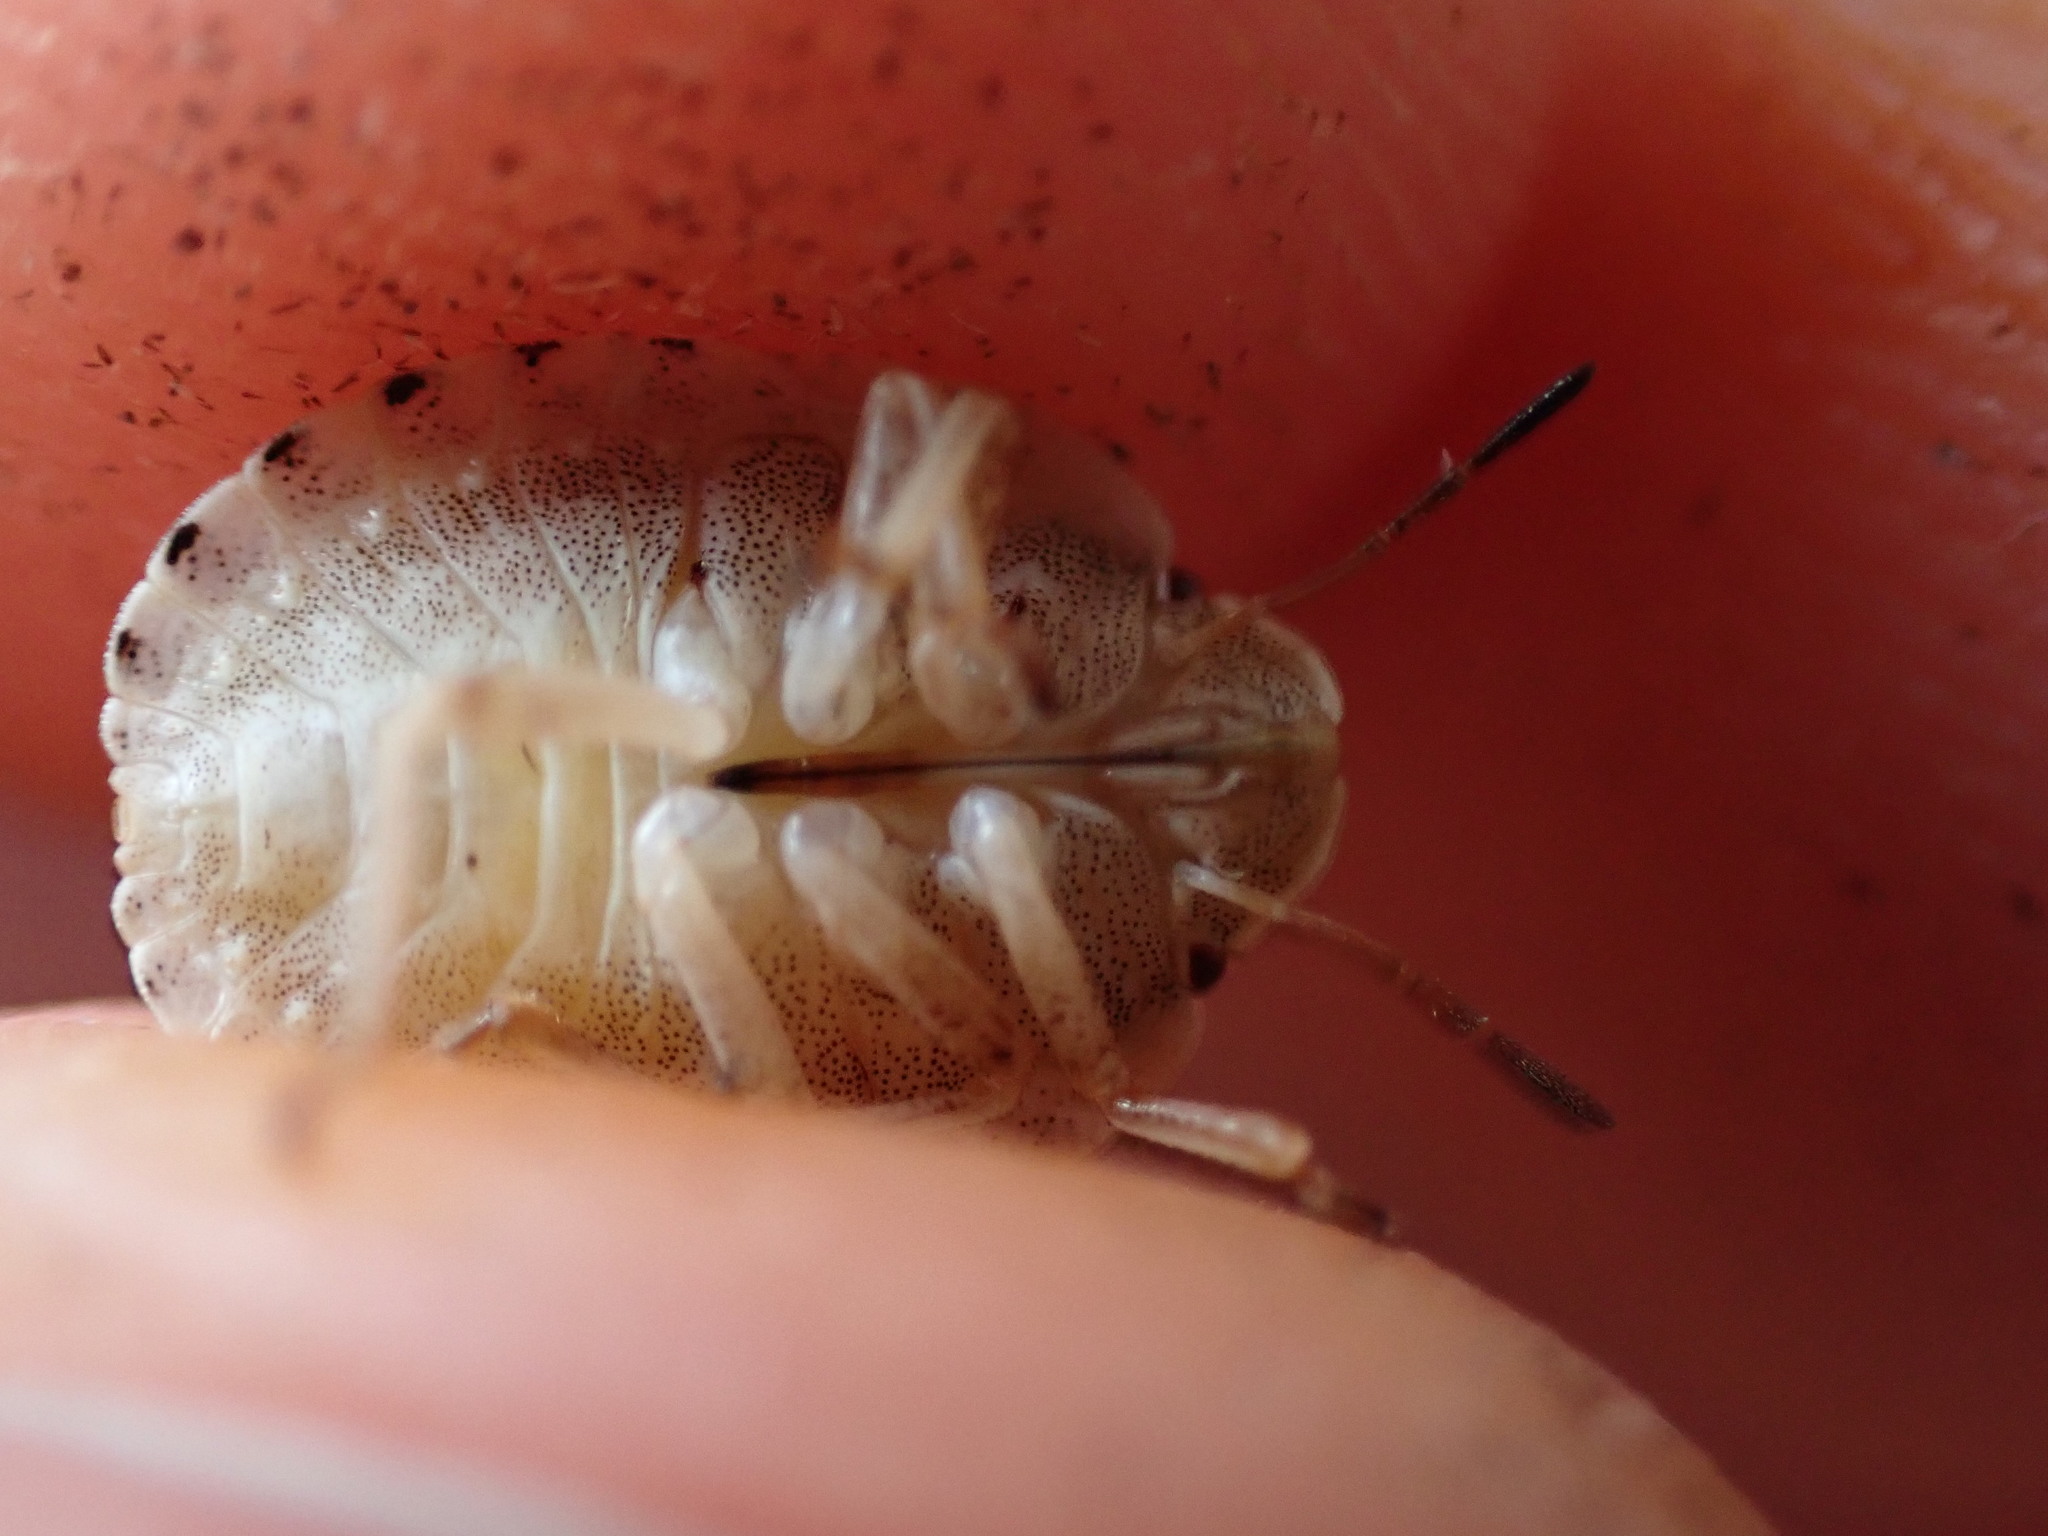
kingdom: Animalia
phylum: Arthropoda
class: Insecta
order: Hemiptera
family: Scutelleridae
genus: Eurygaster
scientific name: Eurygaster maura
